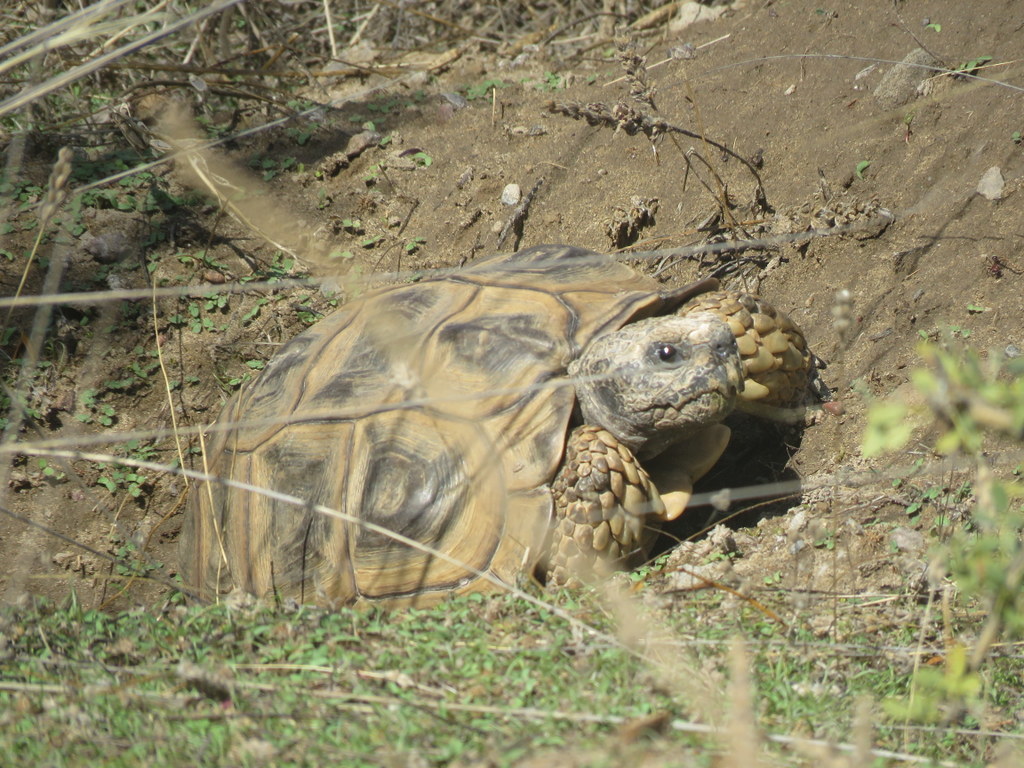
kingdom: Animalia
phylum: Chordata
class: Testudines
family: Testudinidae
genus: Chelonoidis
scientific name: Chelonoidis chilensis
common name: Chaco tortoise
